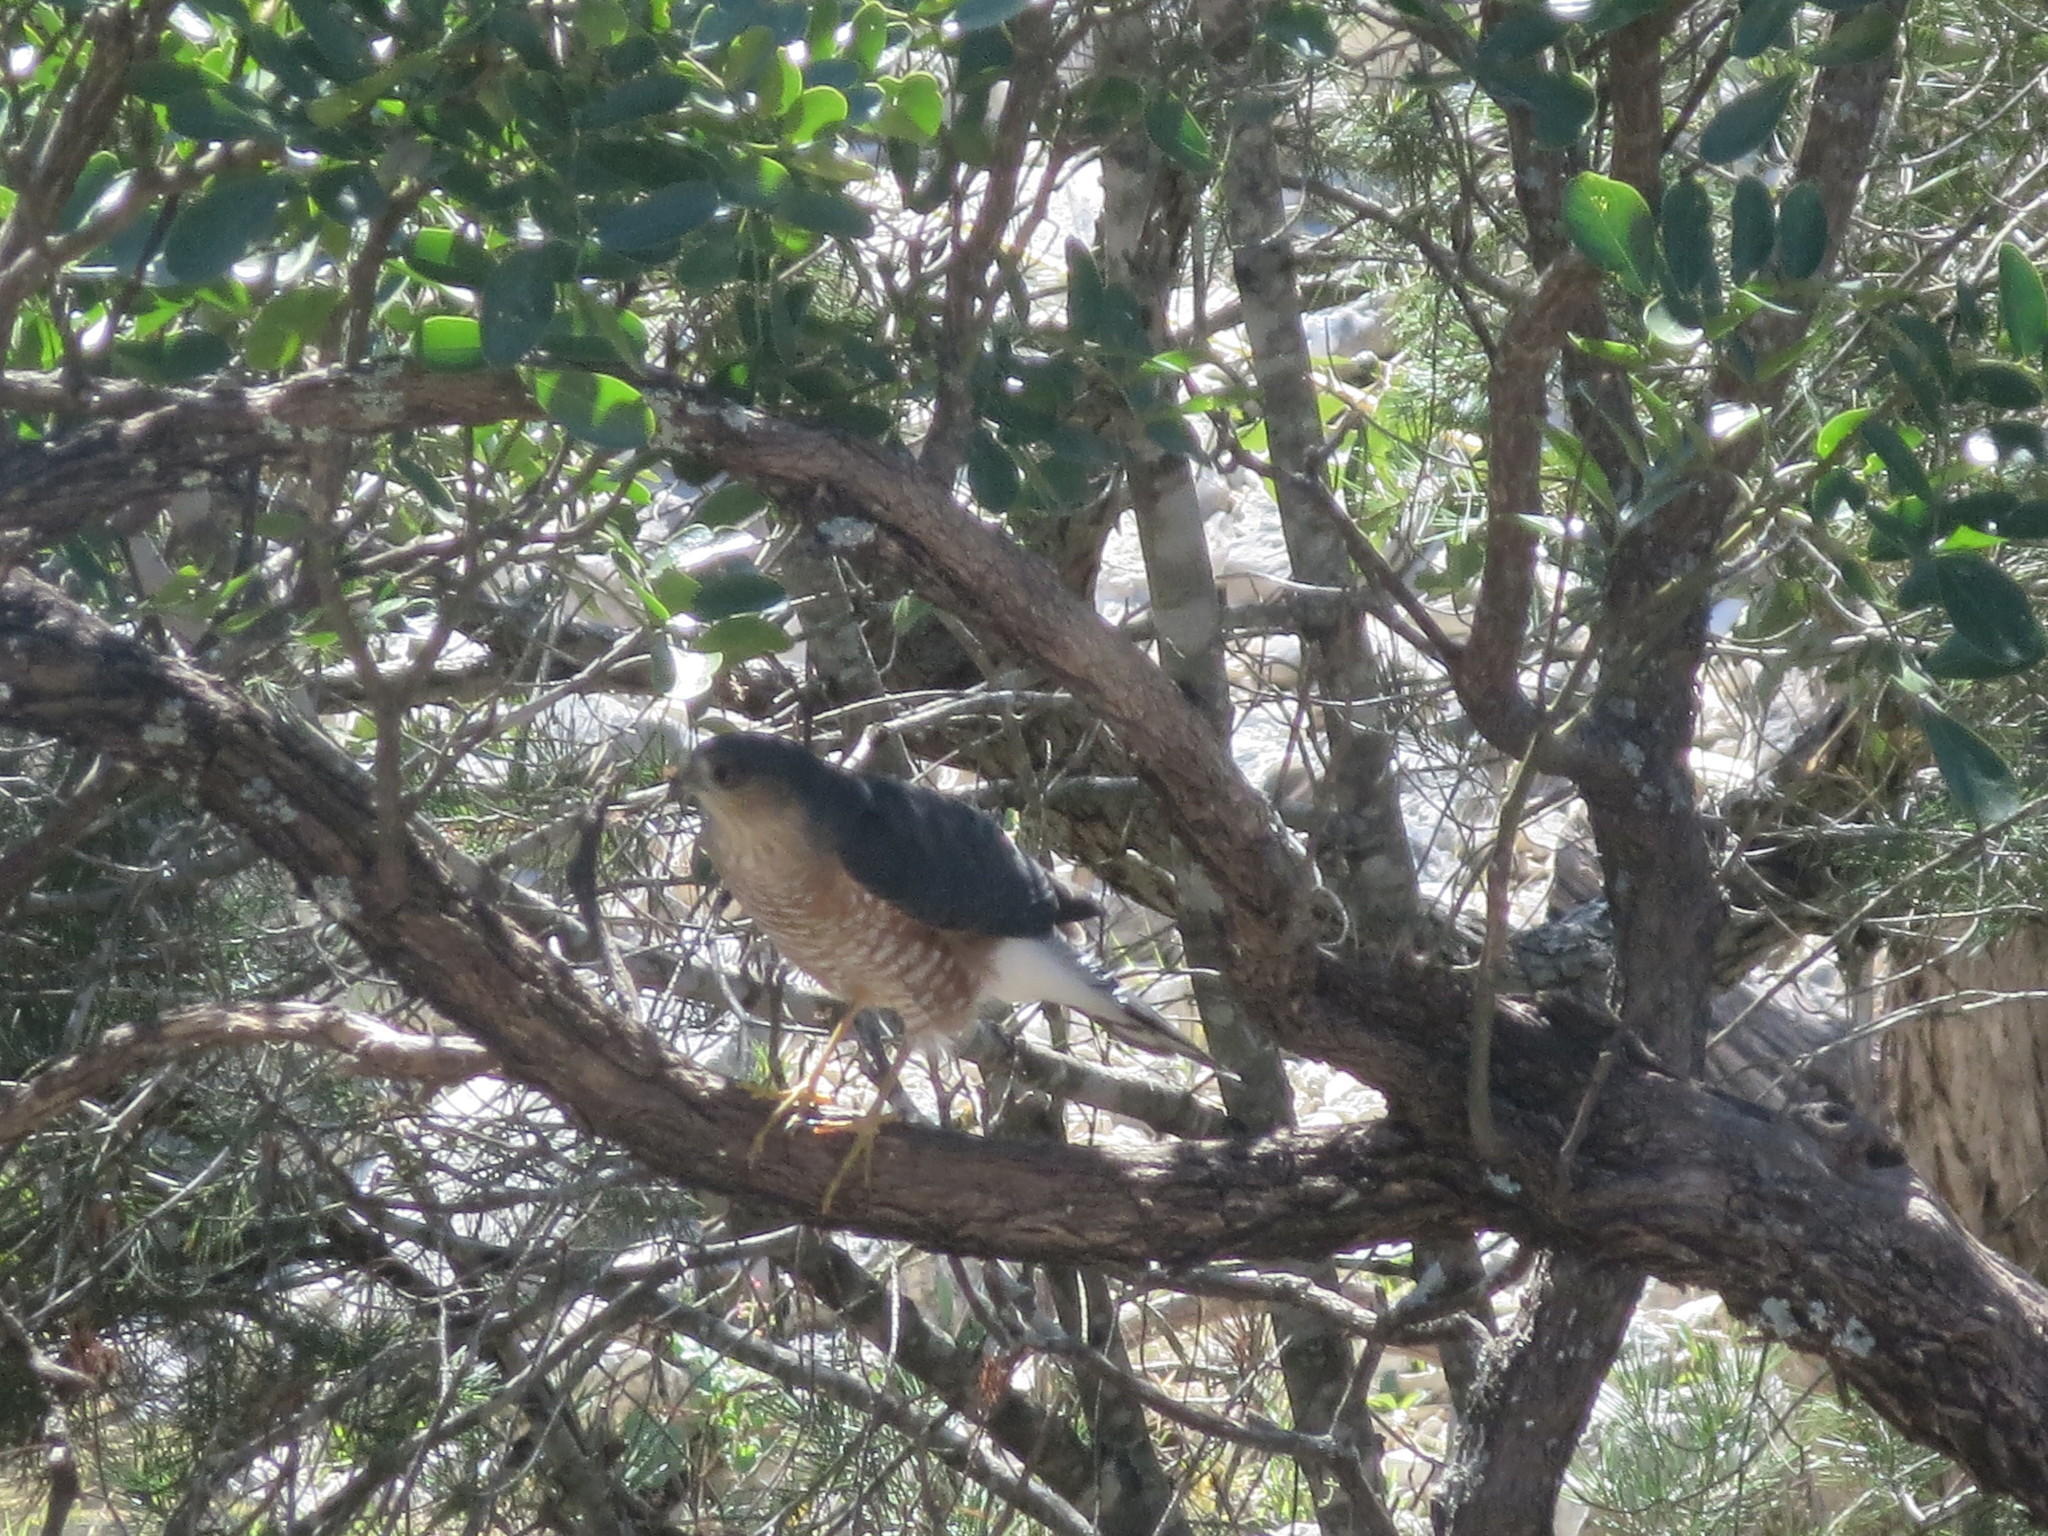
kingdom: Animalia
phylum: Chordata
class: Aves
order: Accipitriformes
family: Accipitridae
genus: Accipiter
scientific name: Accipiter cooperii
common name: Cooper's hawk
